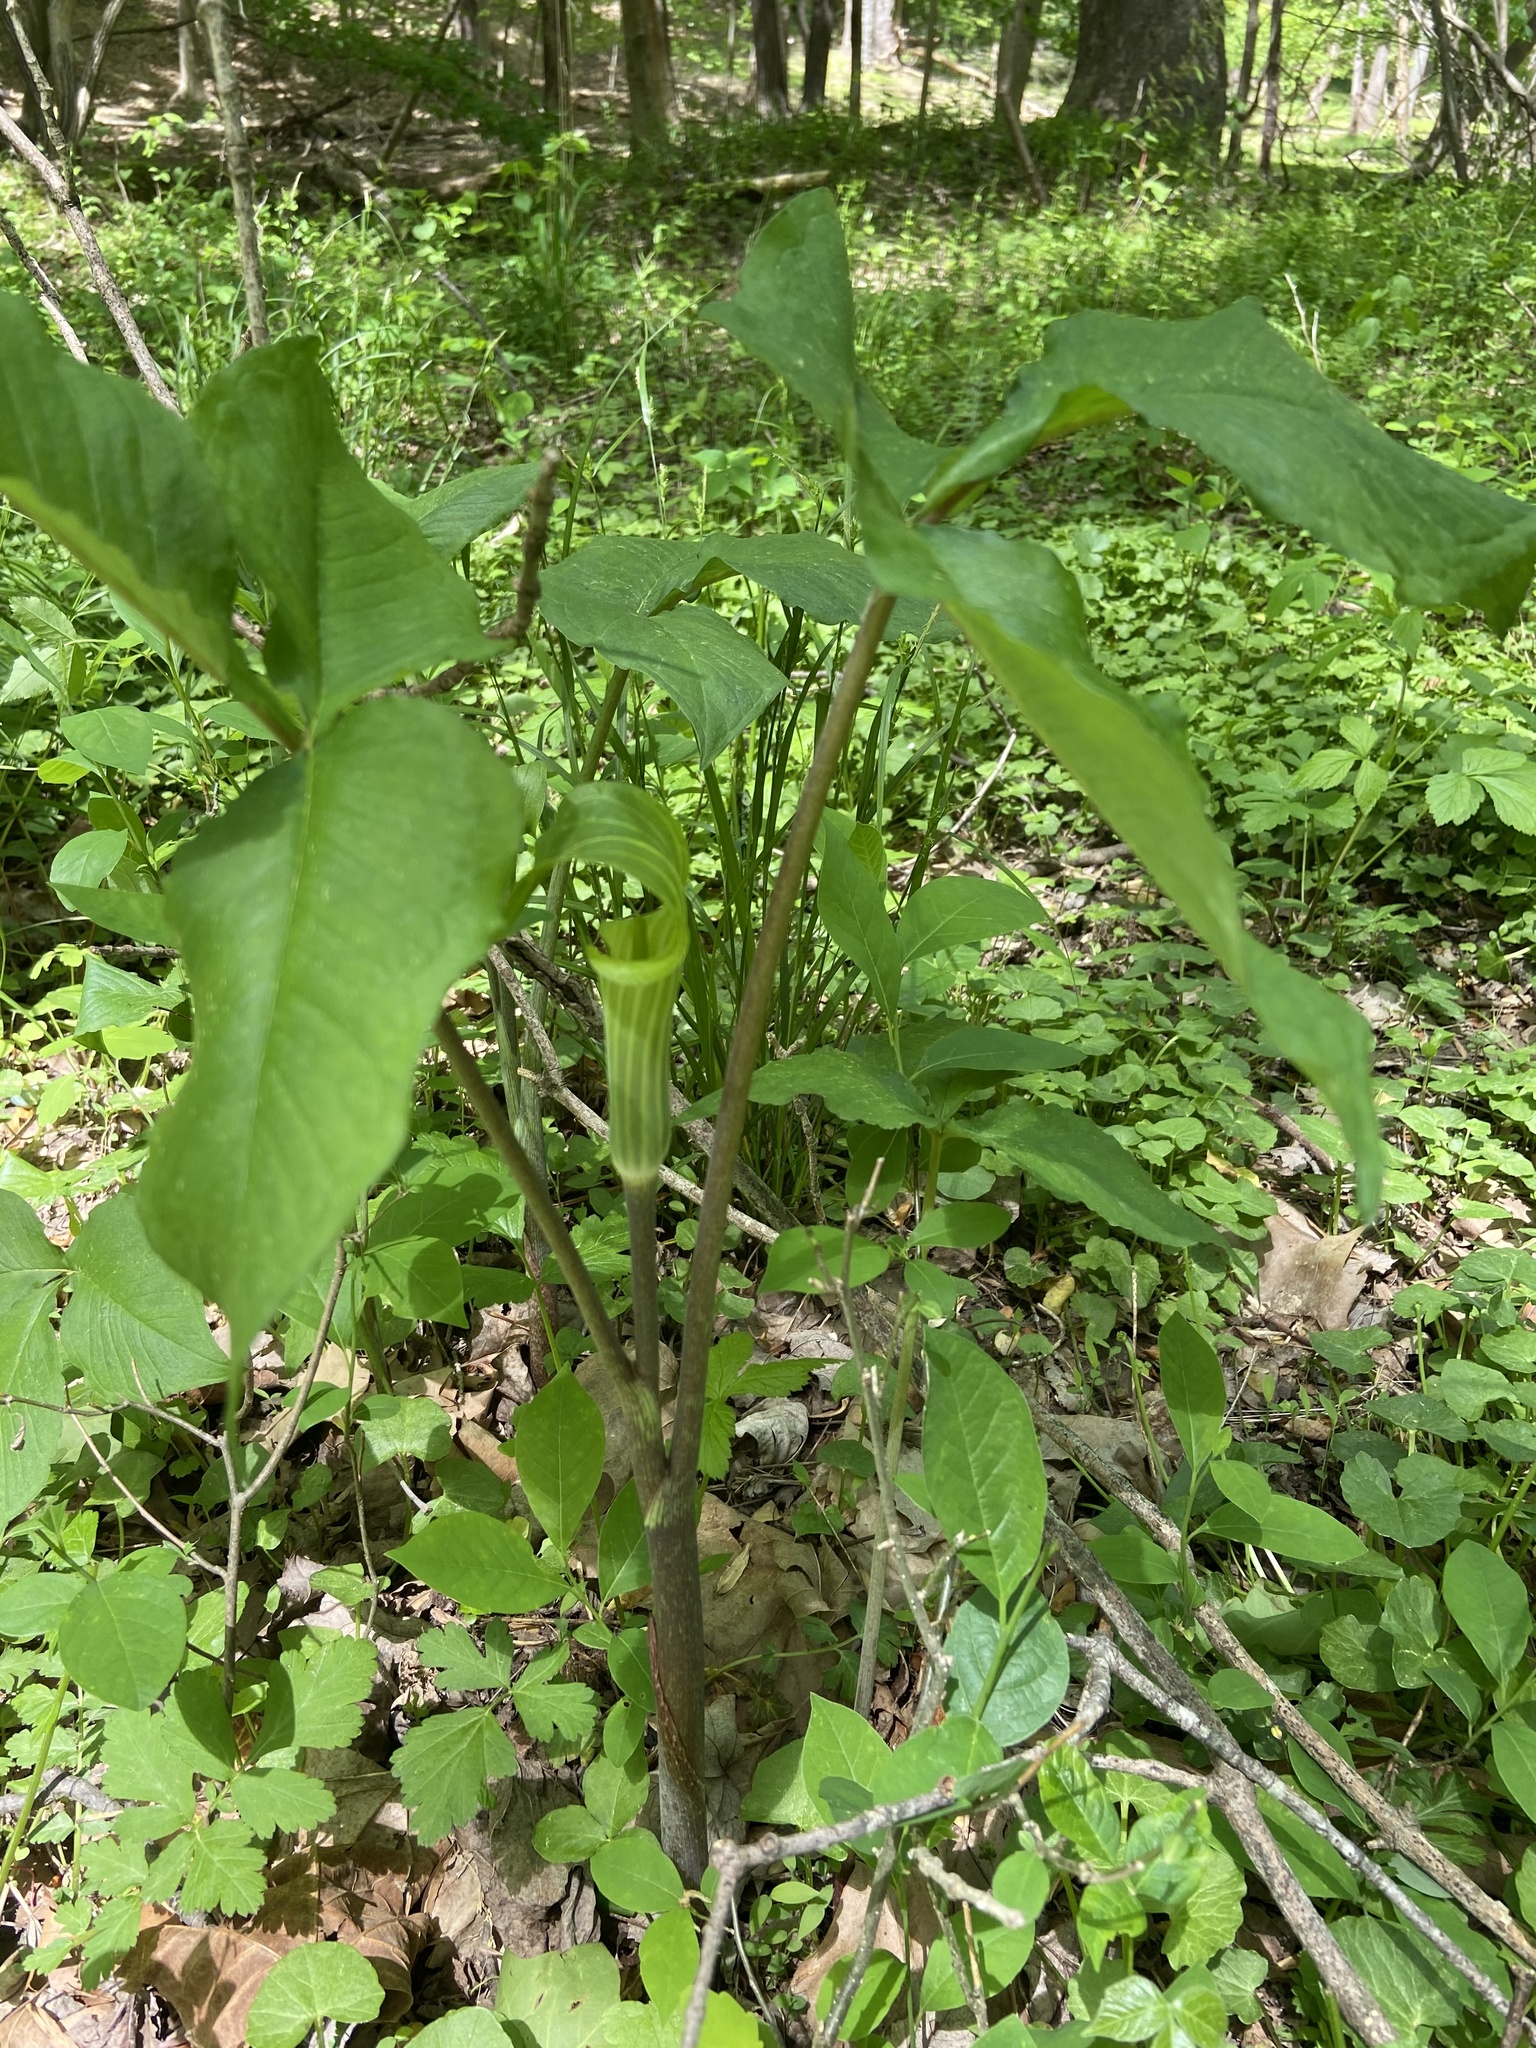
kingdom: Plantae
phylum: Tracheophyta
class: Liliopsida
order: Alismatales
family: Araceae
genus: Arisaema
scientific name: Arisaema triphyllum
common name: Jack-in-the-pulpit
